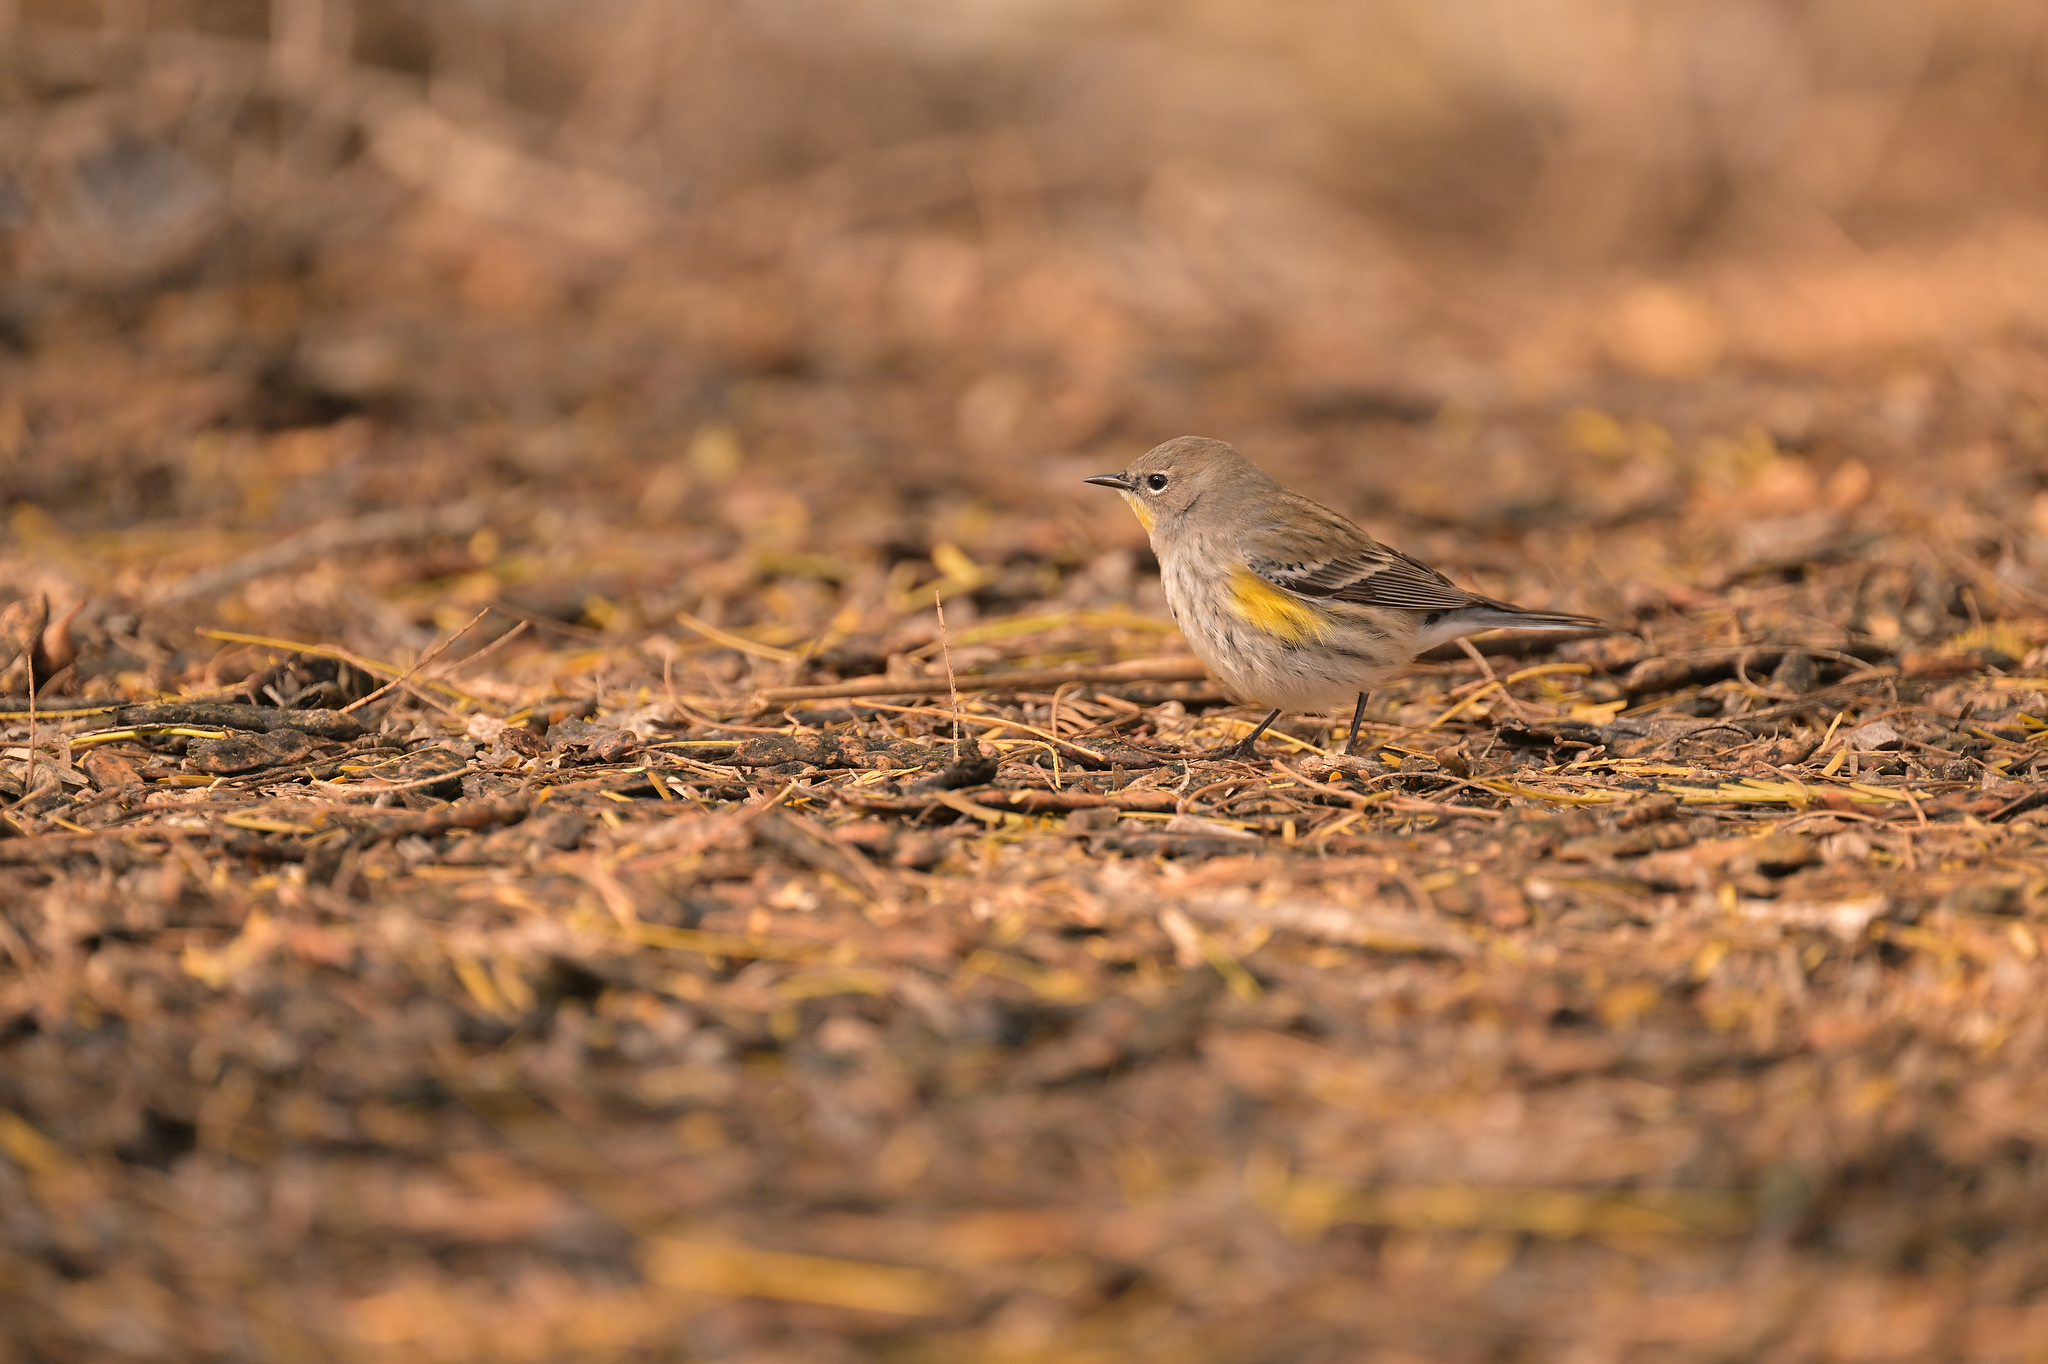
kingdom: Animalia
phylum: Chordata
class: Aves
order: Passeriformes
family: Parulidae
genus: Setophaga
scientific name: Setophaga coronata
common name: Myrtle warbler
